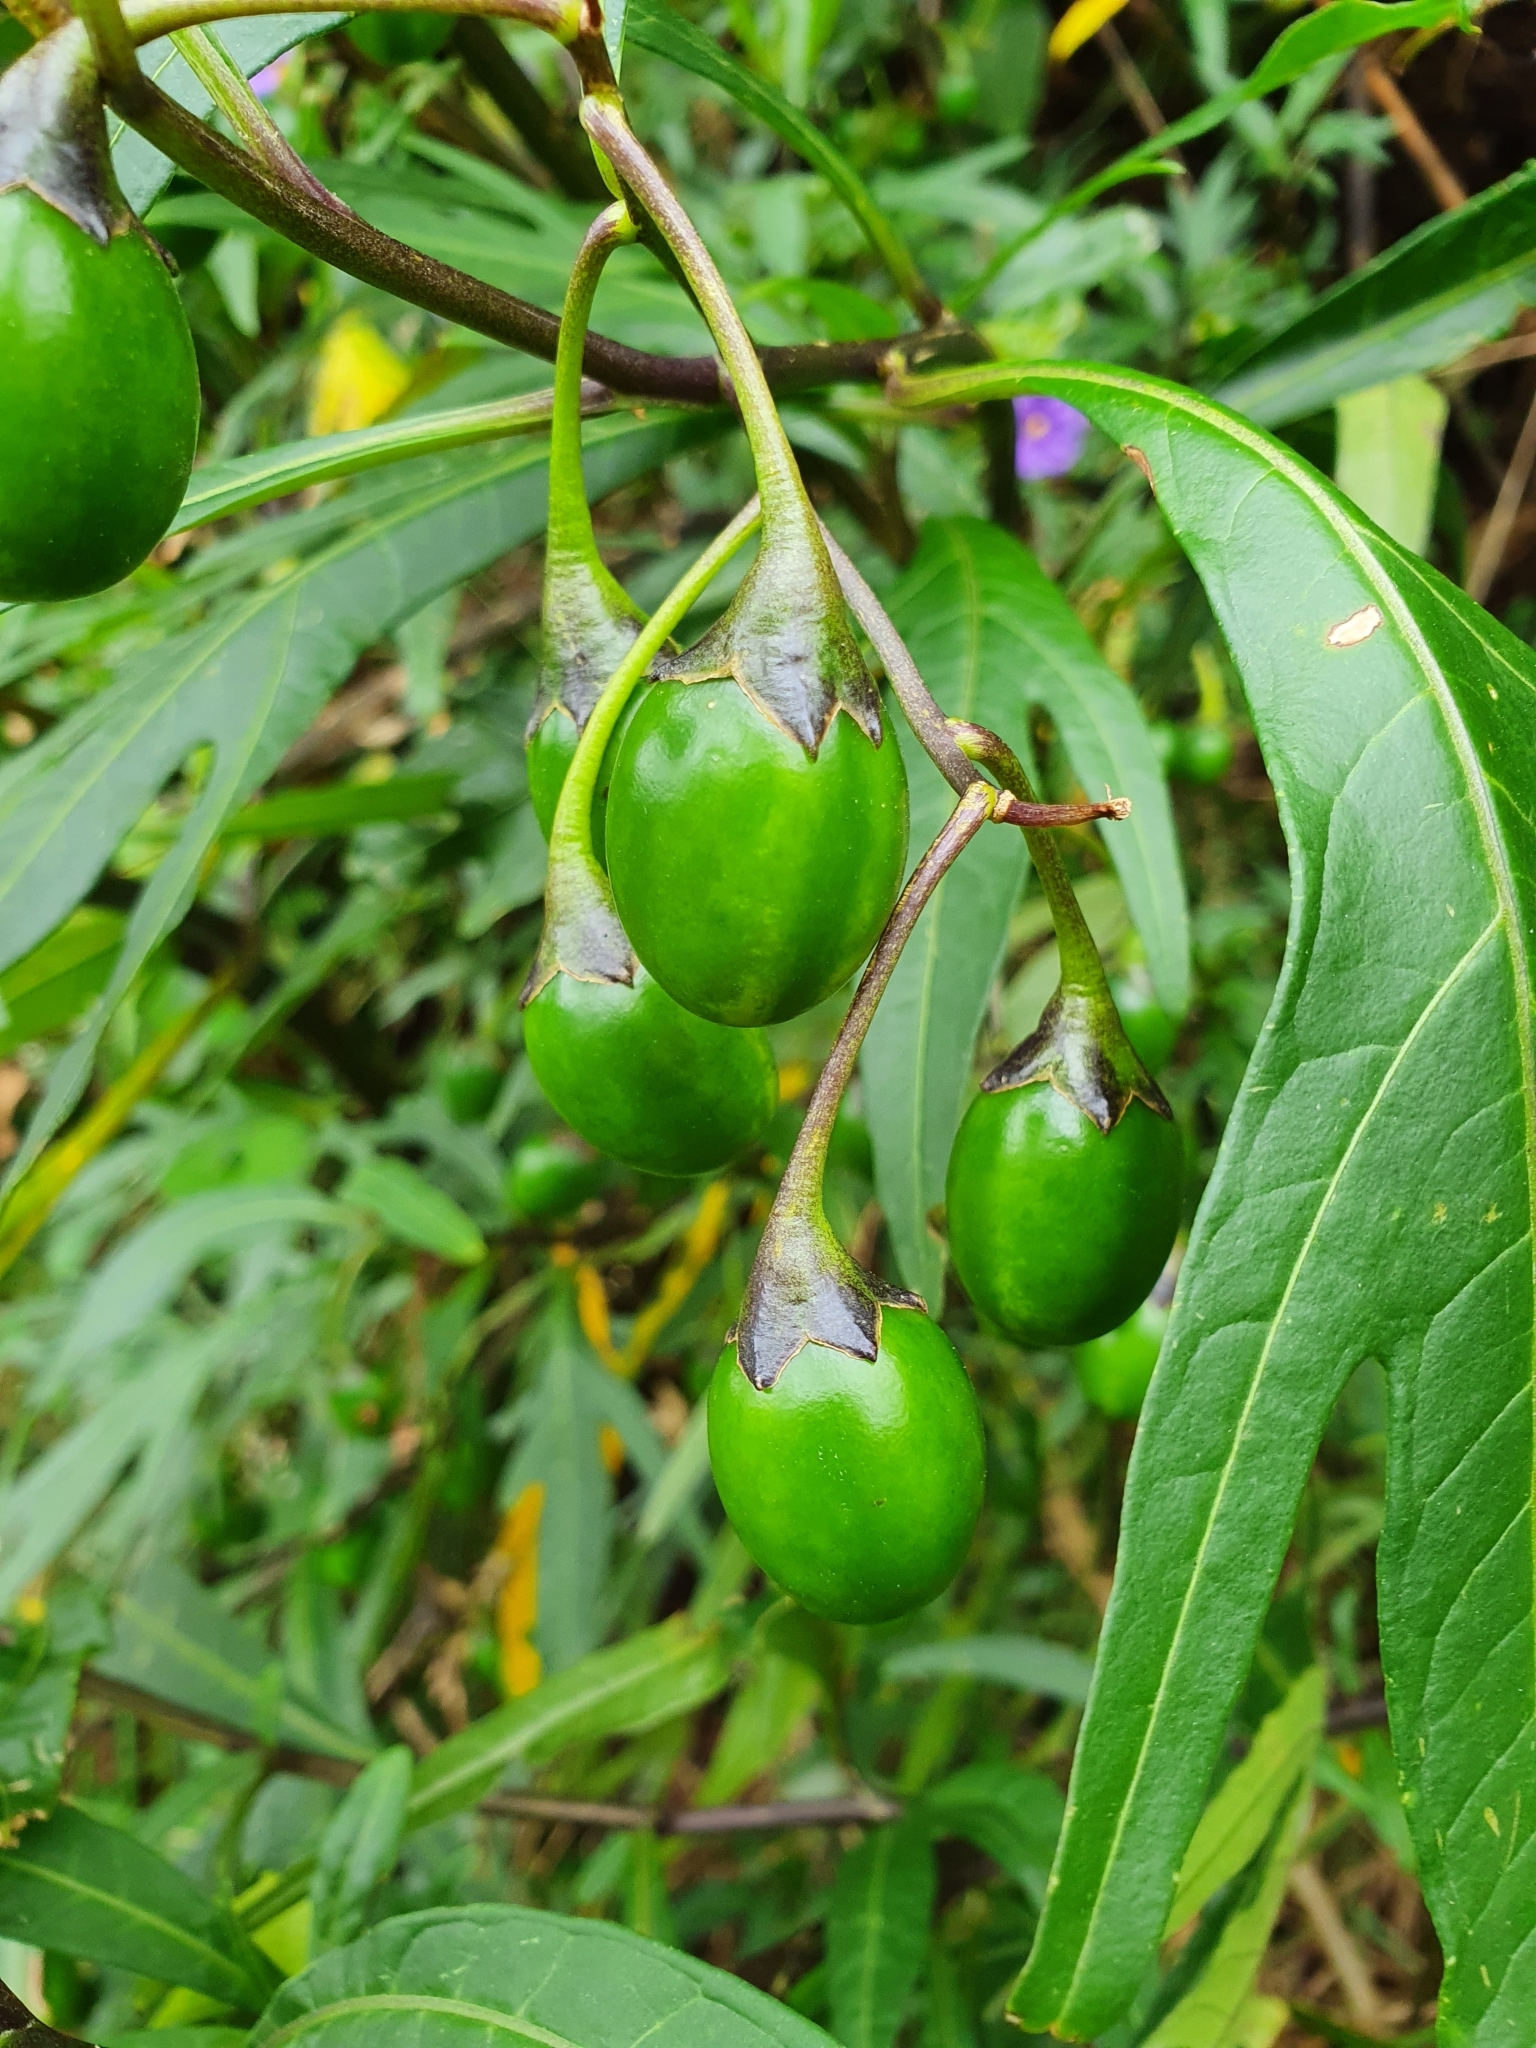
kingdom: Plantae
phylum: Tracheophyta
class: Magnoliopsida
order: Solanales
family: Solanaceae
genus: Solanum
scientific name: Solanum laciniatum
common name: Kangaroo-apple
